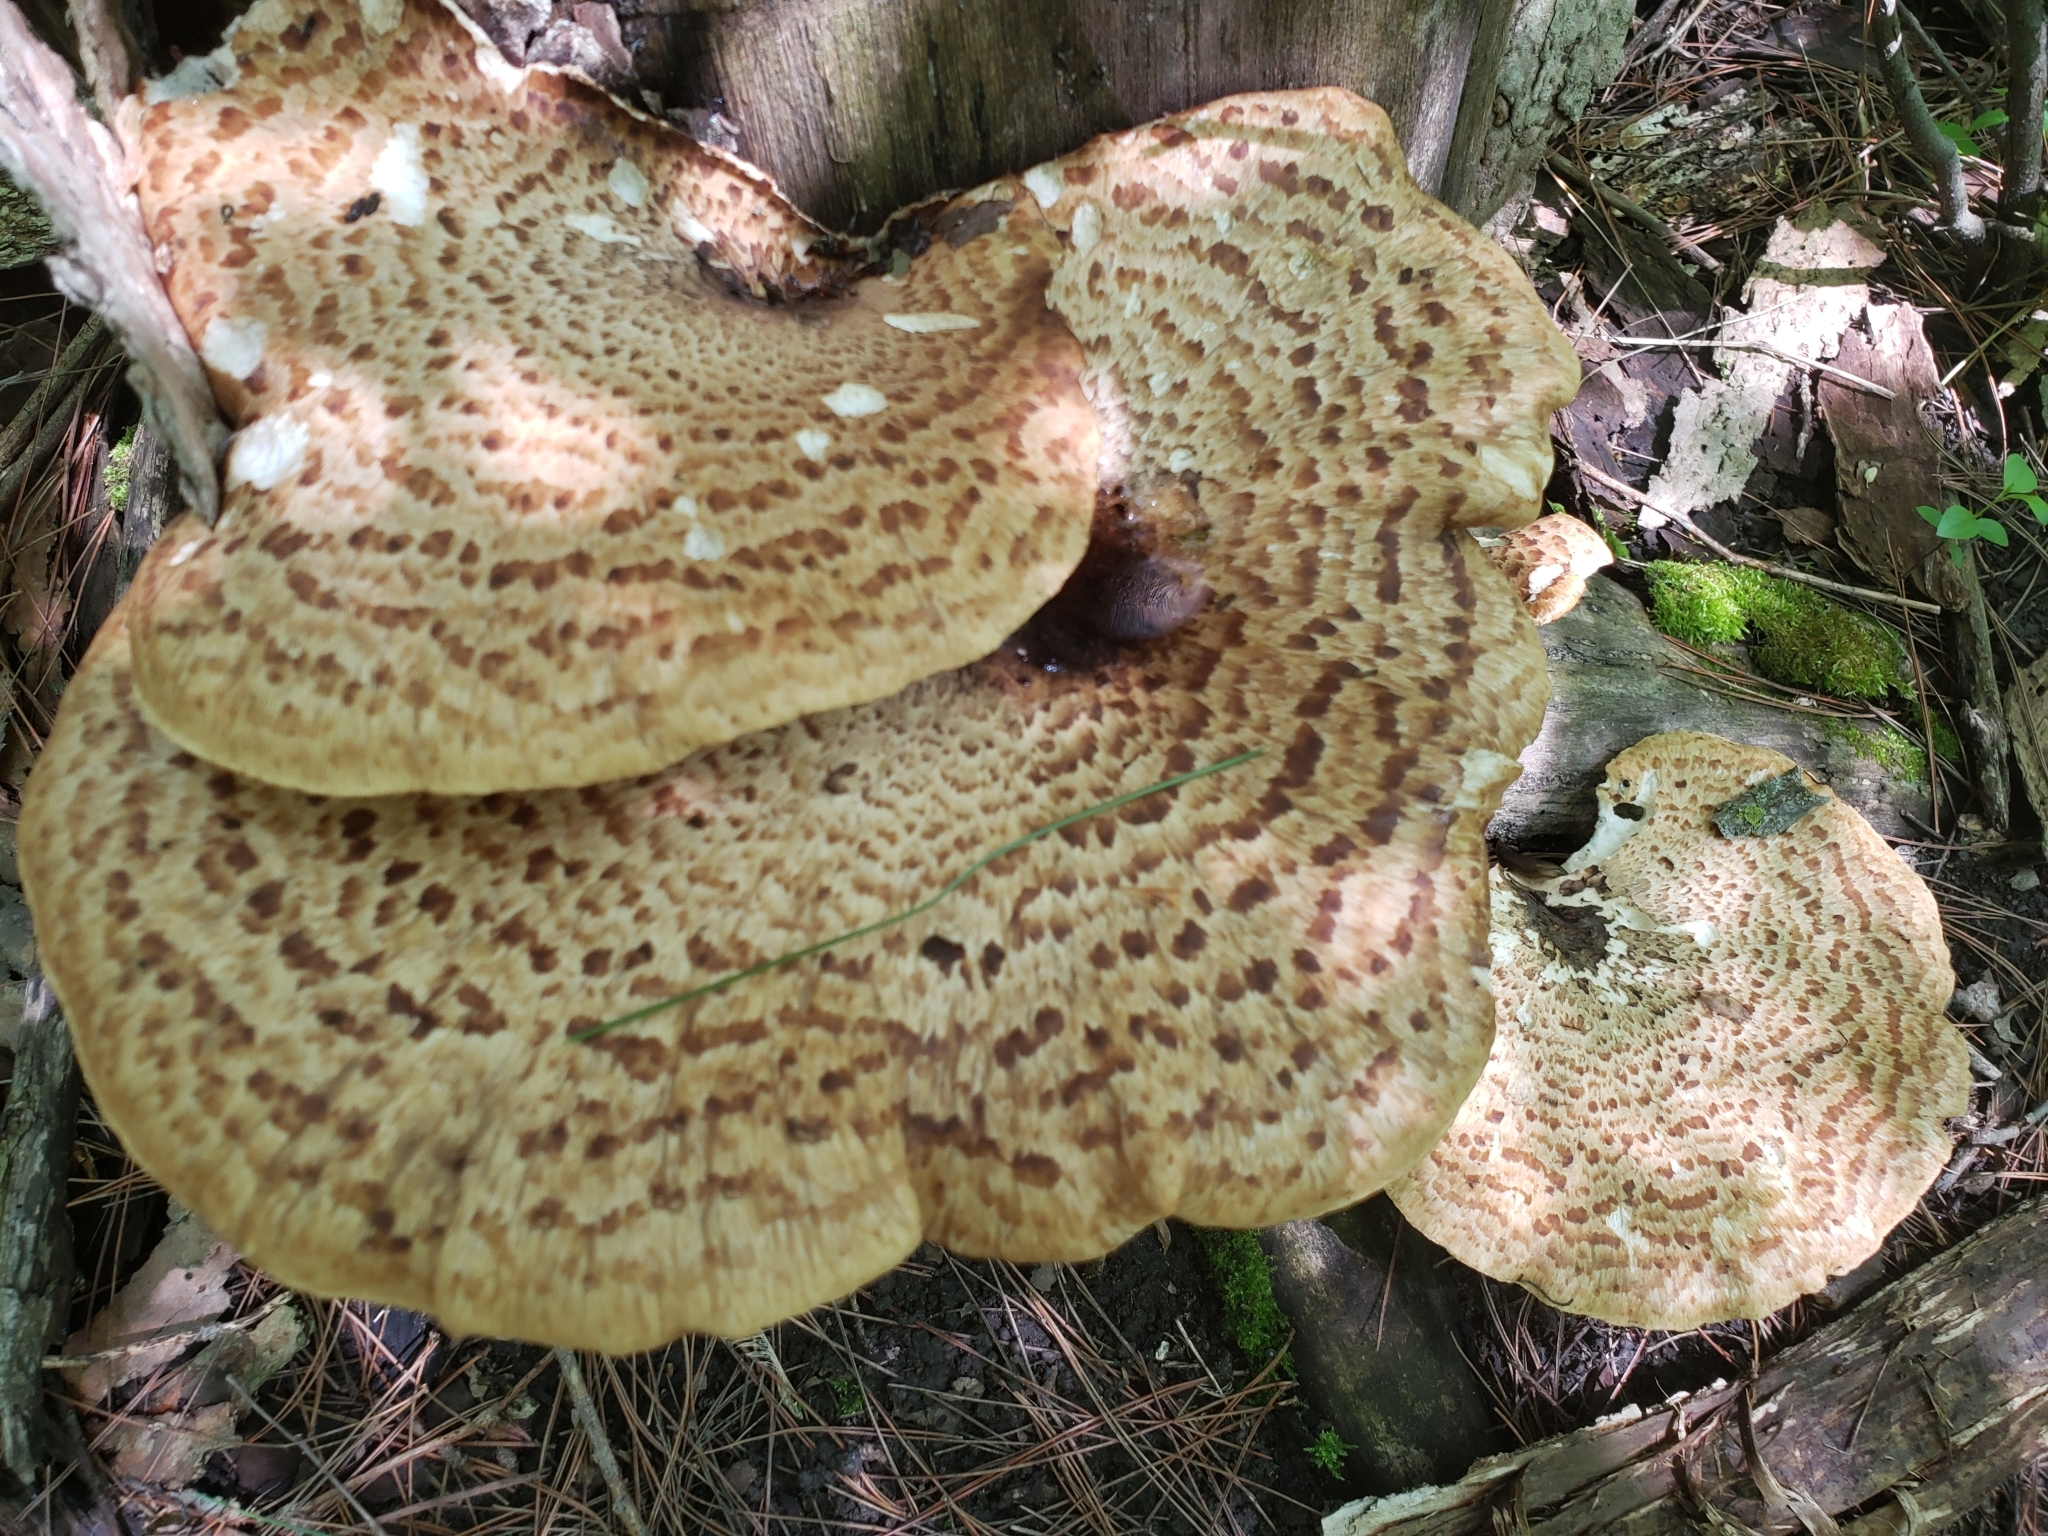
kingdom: Fungi
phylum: Basidiomycota
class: Agaricomycetes
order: Polyporales
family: Polyporaceae
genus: Cerioporus
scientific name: Cerioporus squamosus
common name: Dryad's saddle
